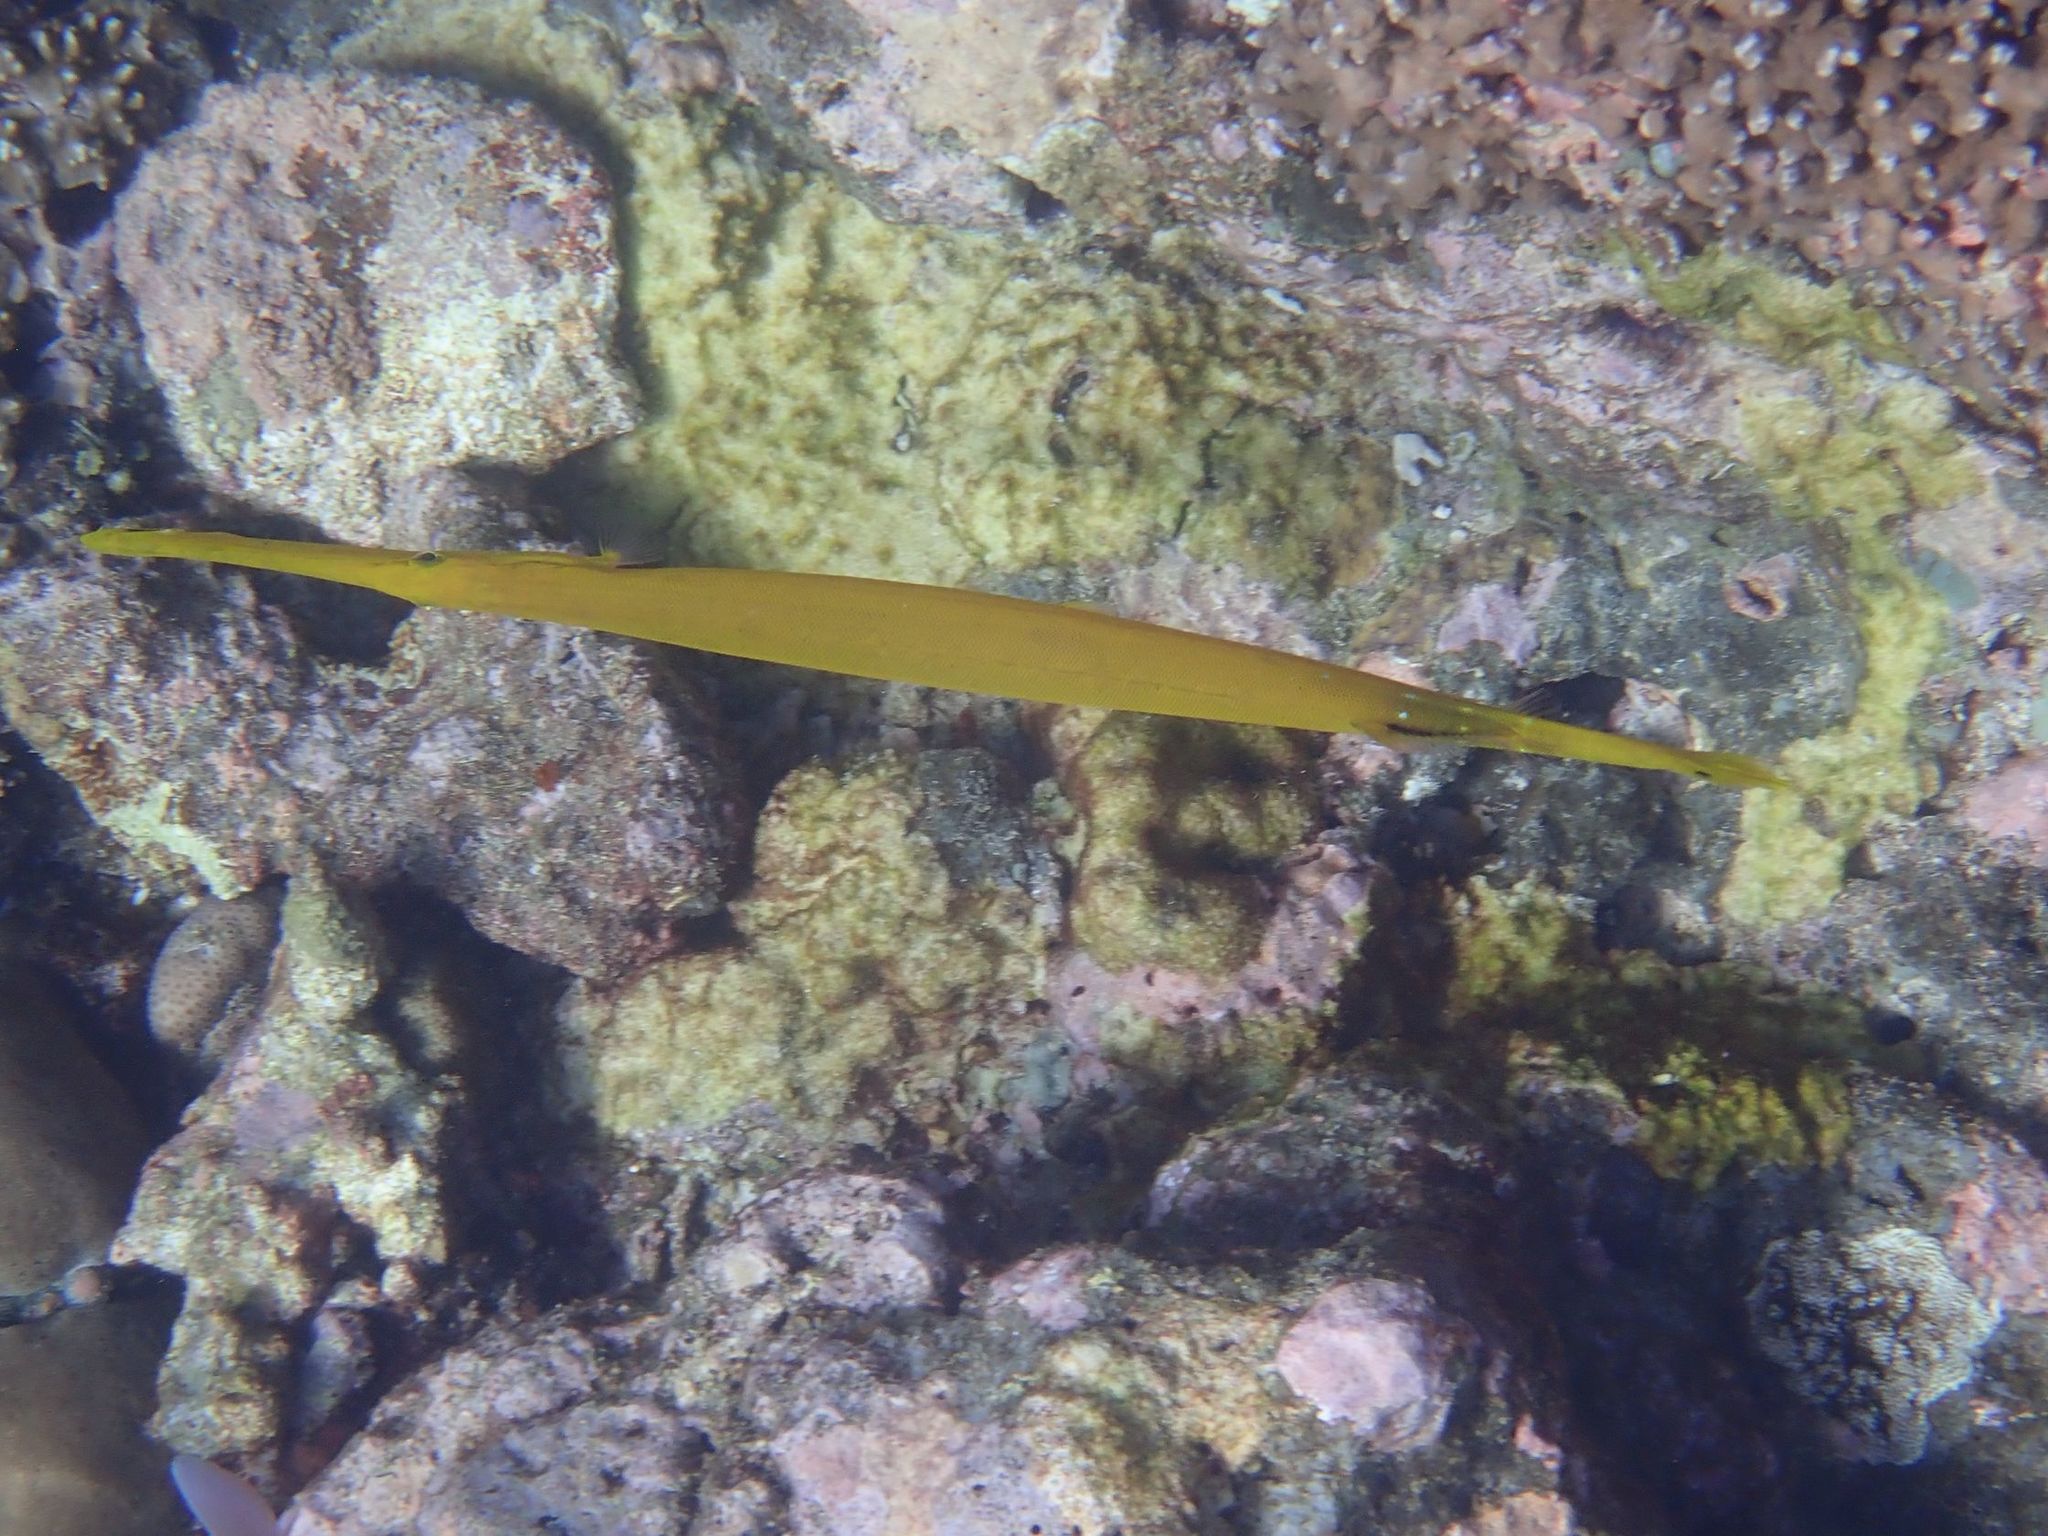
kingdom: Animalia
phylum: Chordata
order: Syngnathiformes
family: Aulostomidae
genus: Aulostomus
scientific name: Aulostomus chinensis
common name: Chinese trumpetfish
